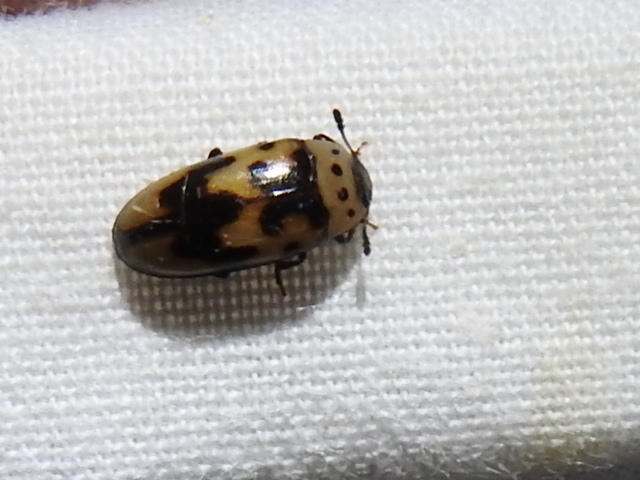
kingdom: Animalia
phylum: Arthropoda
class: Insecta
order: Coleoptera
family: Erotylidae
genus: Ischyrus
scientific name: Ischyrus quadripunctatus
